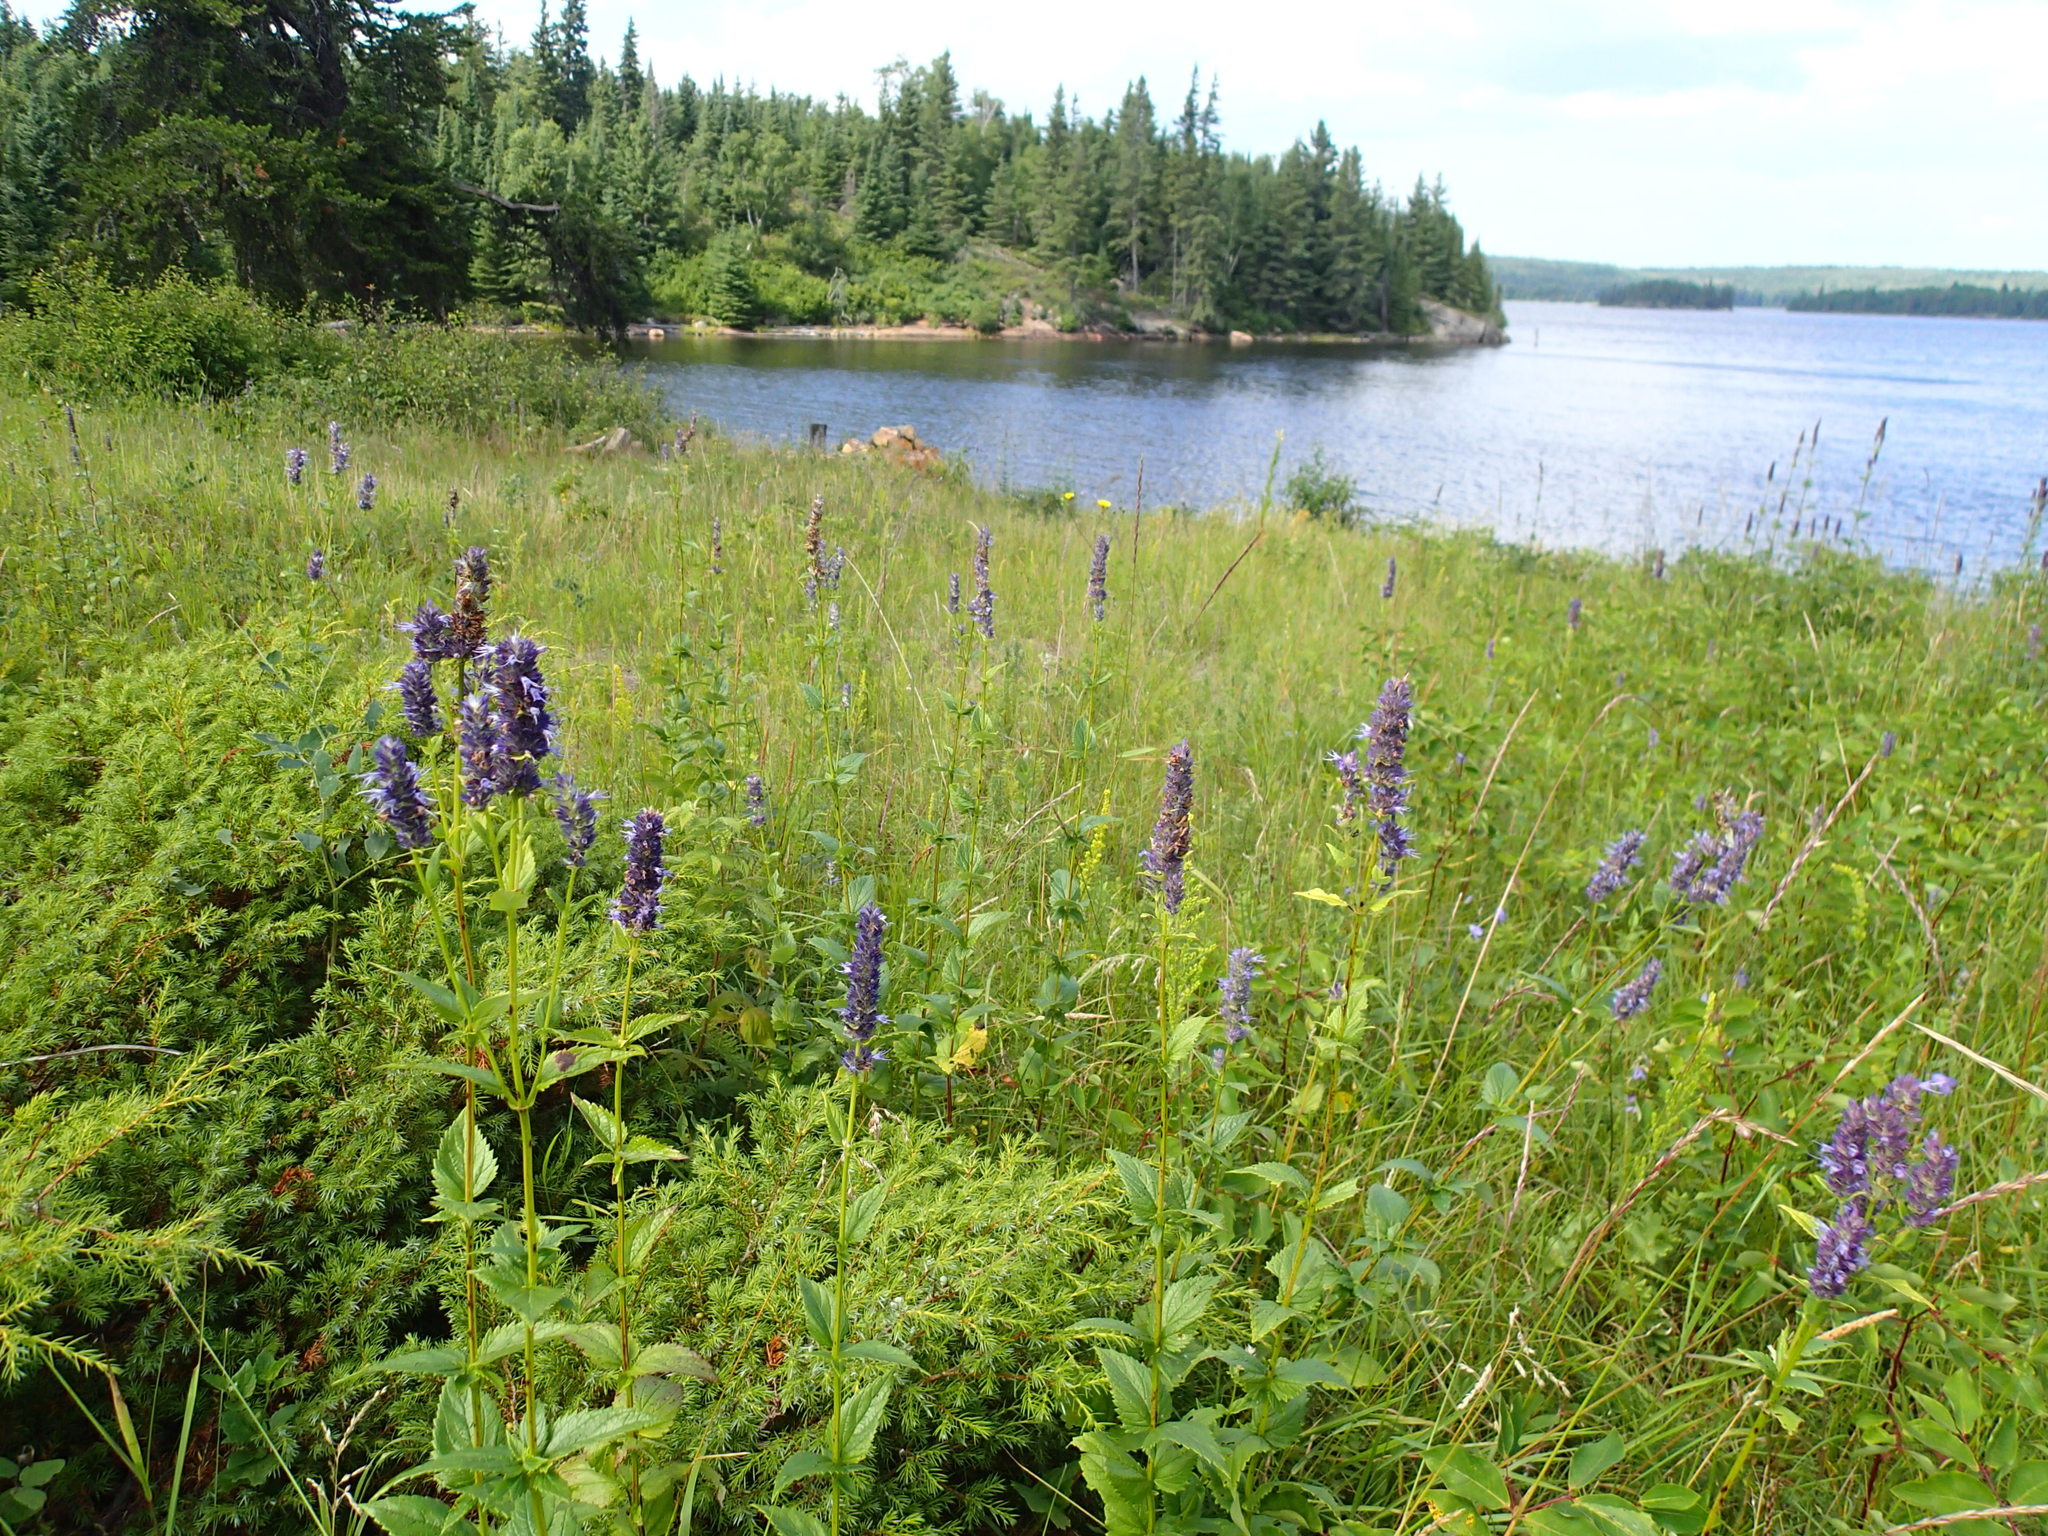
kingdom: Plantae
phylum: Tracheophyta
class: Magnoliopsida
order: Lamiales
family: Lamiaceae
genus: Agastache
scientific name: Agastache foeniculum
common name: Anise hyssop
